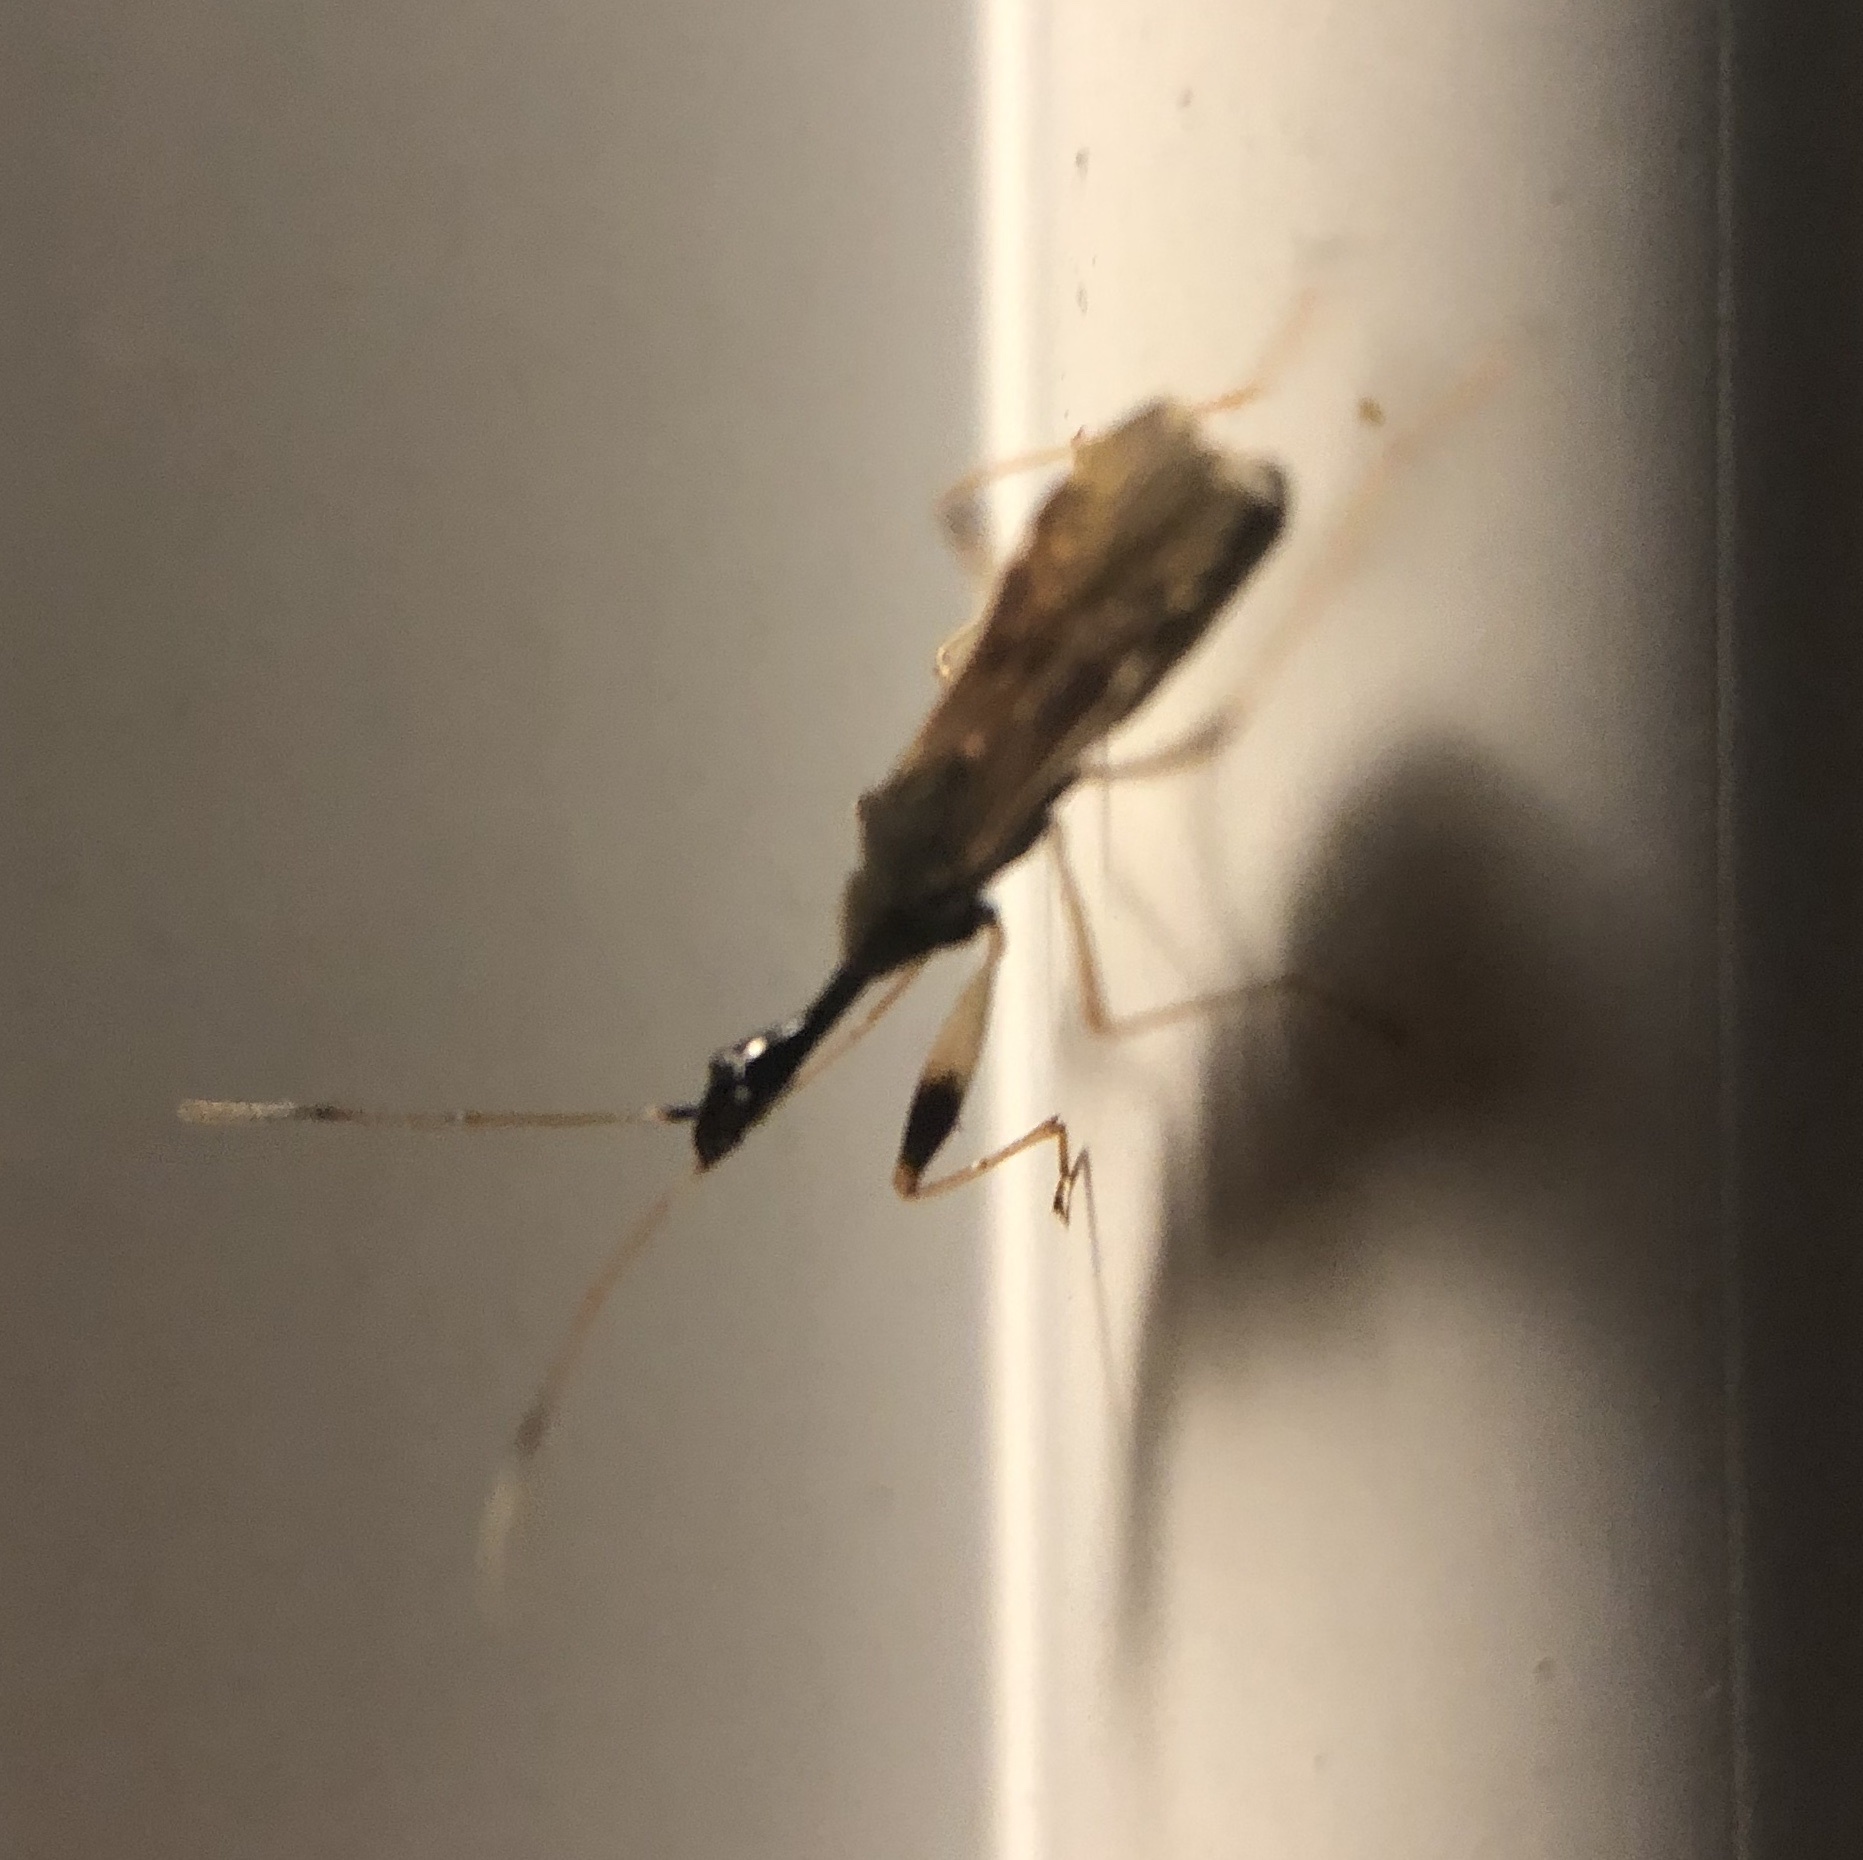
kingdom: Animalia
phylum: Arthropoda
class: Insecta
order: Hemiptera
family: Rhyparochromidae
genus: Myodocha
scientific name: Myodocha serripes
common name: Long-necked seed bug
